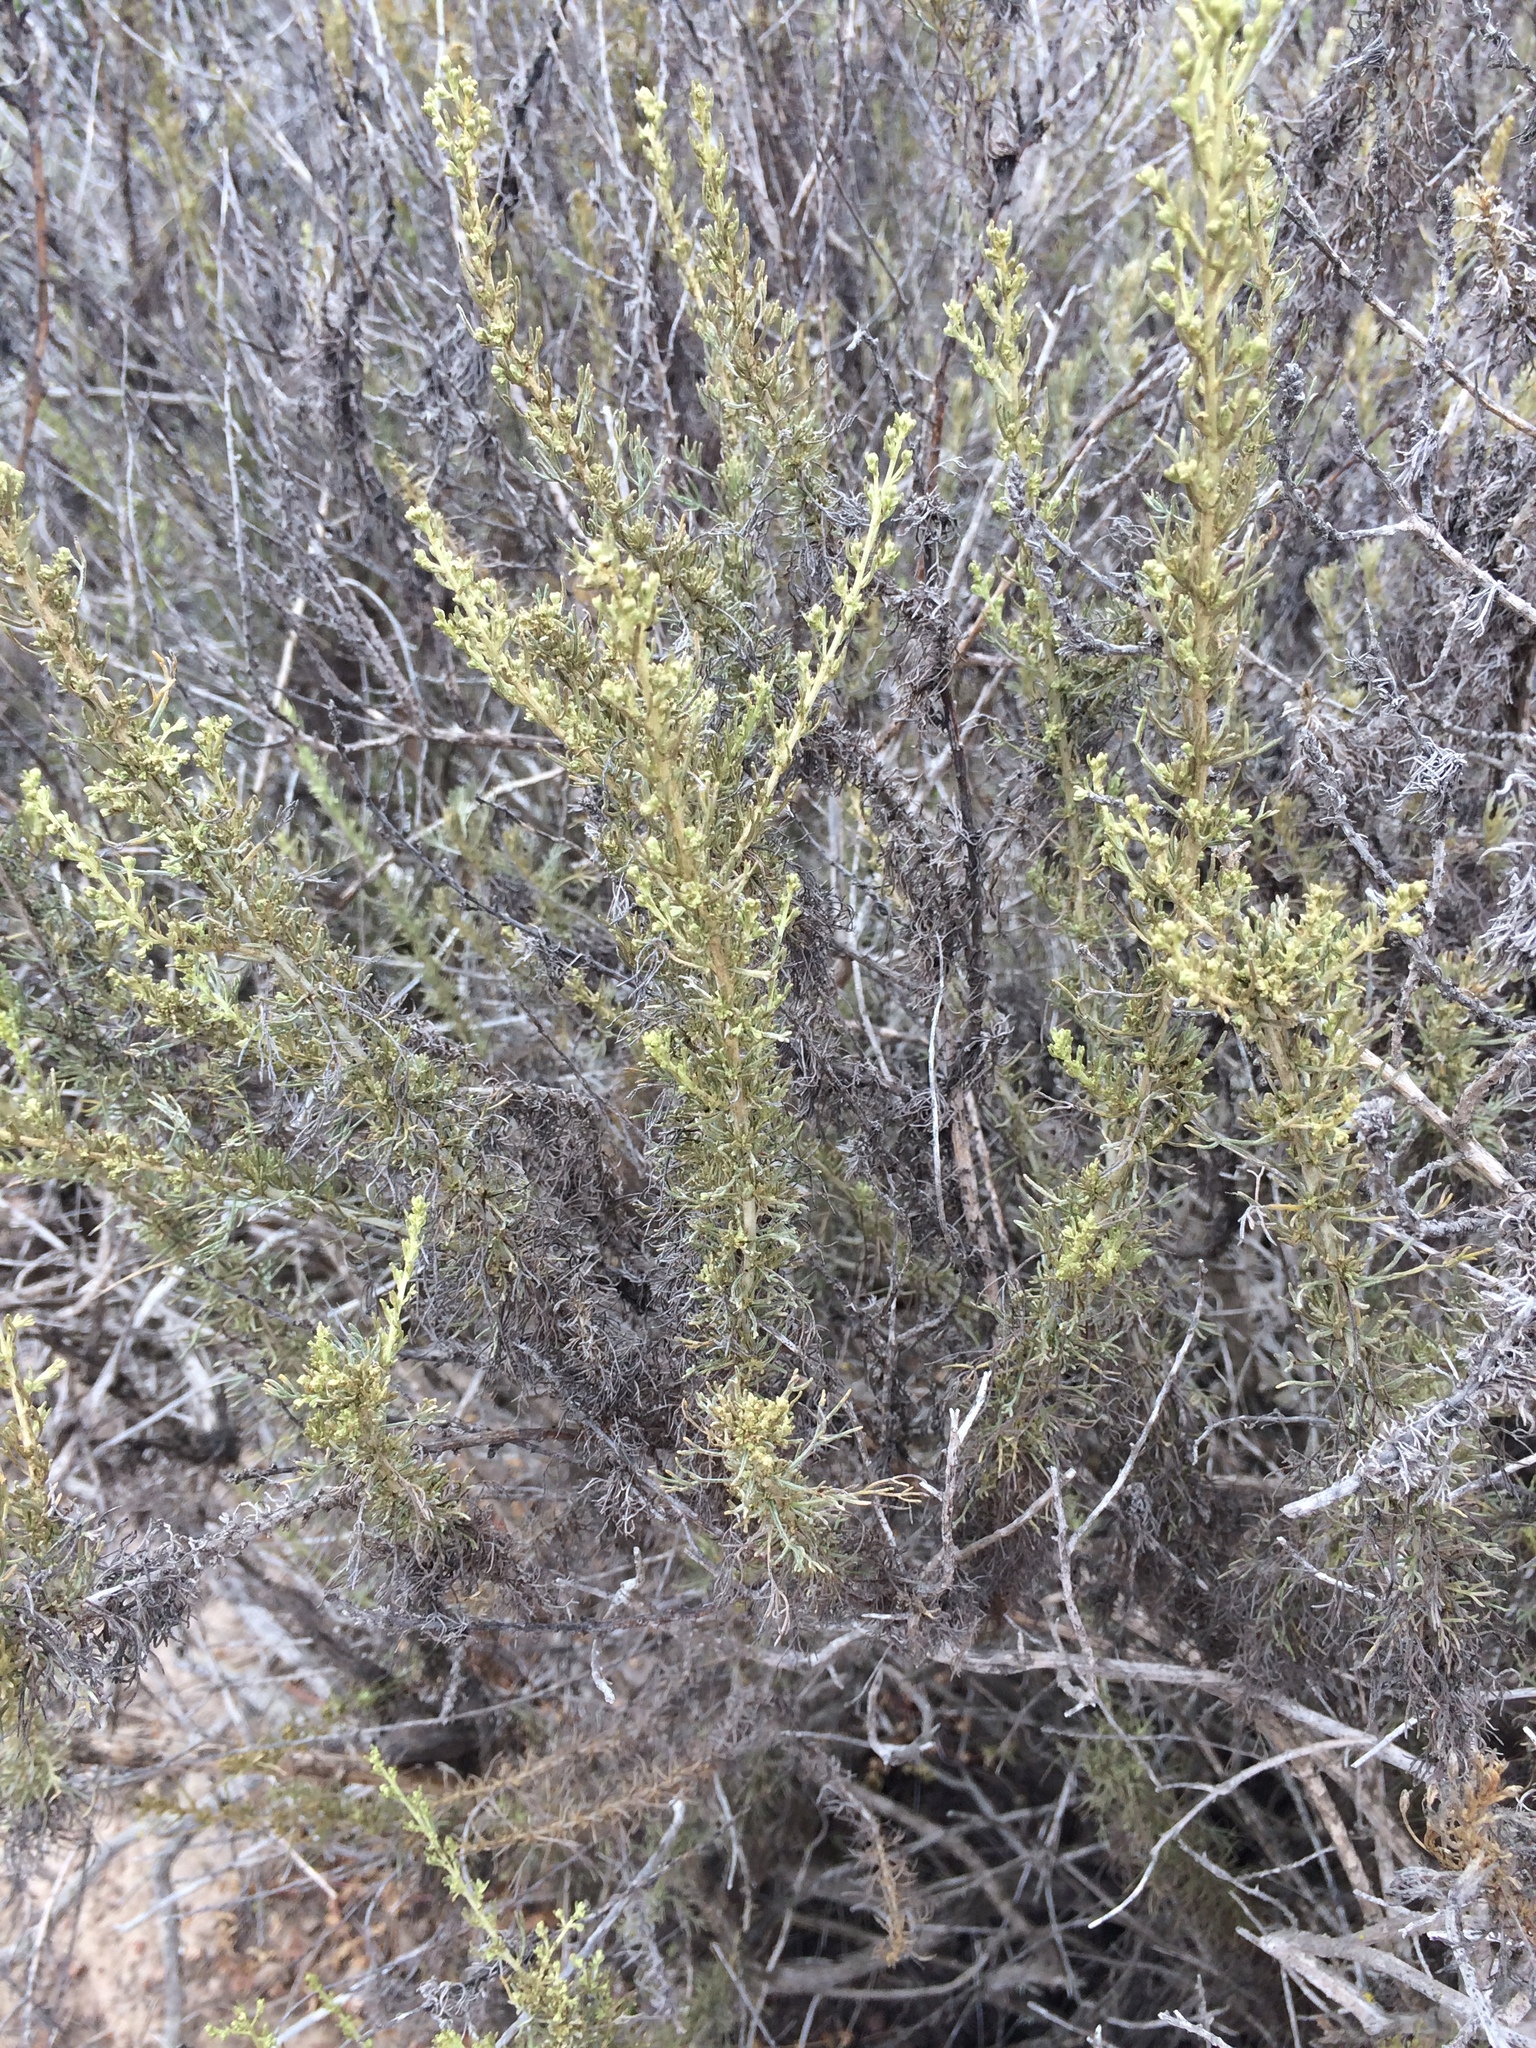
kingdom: Plantae
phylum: Tracheophyta
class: Magnoliopsida
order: Asterales
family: Asteraceae
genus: Artemisia
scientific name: Artemisia californica
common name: California sagebrush
